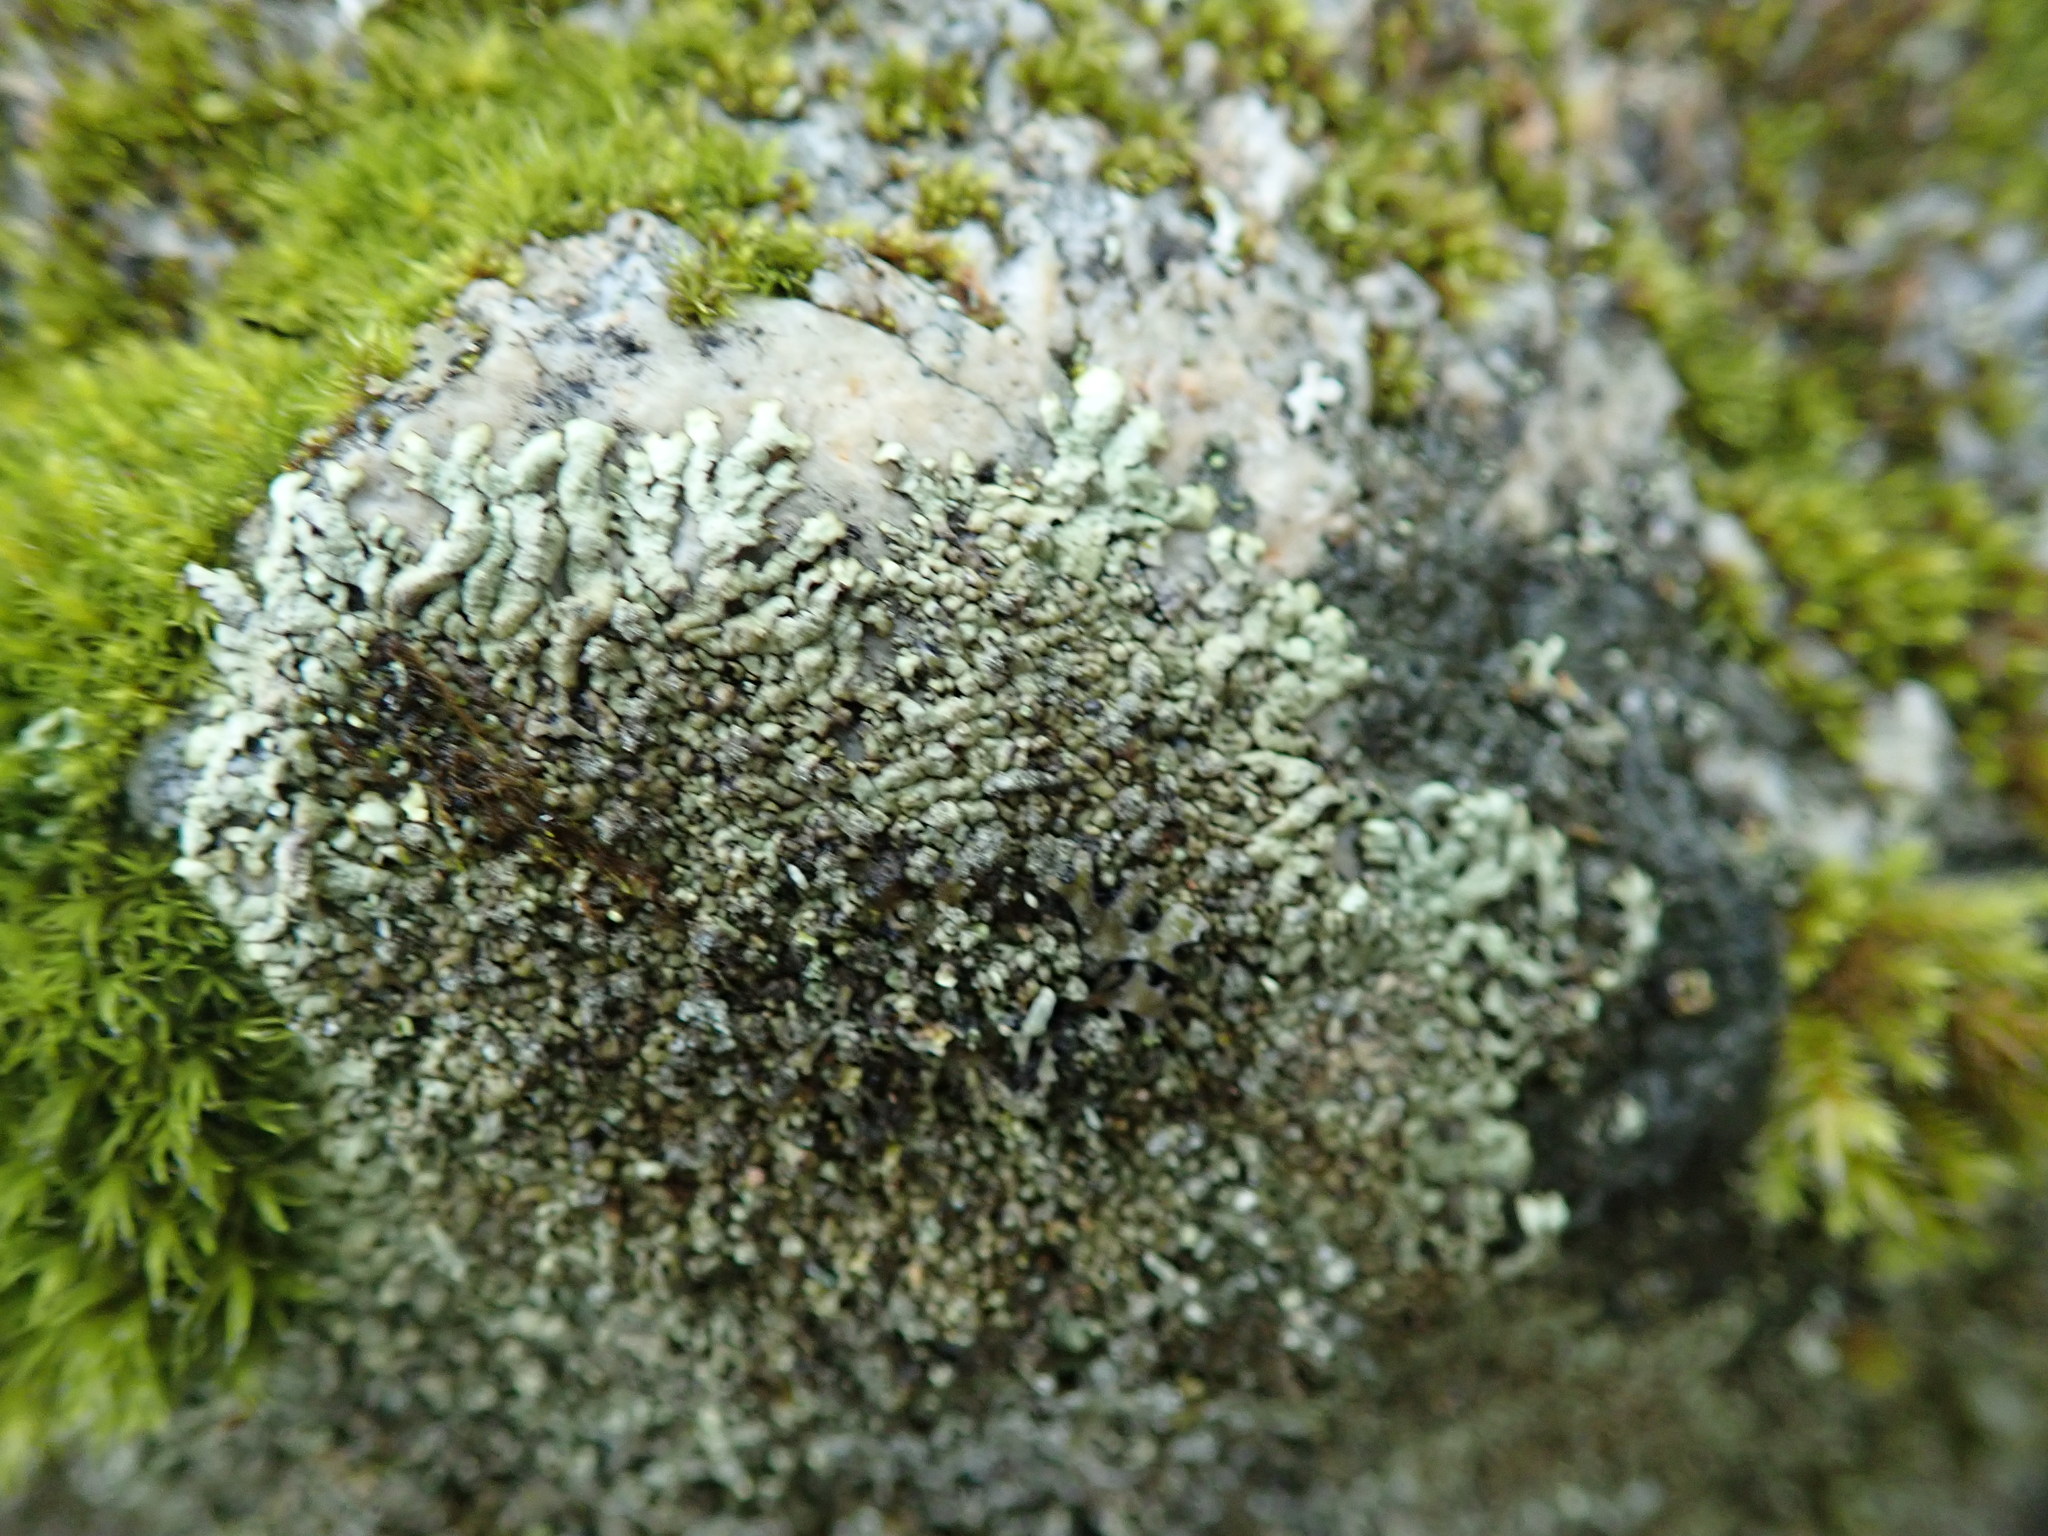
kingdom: Fungi
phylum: Ascomycota
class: Lecanoromycetes
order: Lecanorales
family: Parmeliaceae
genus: Xanthoparmelia
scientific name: Xanthoparmelia mougeotii
